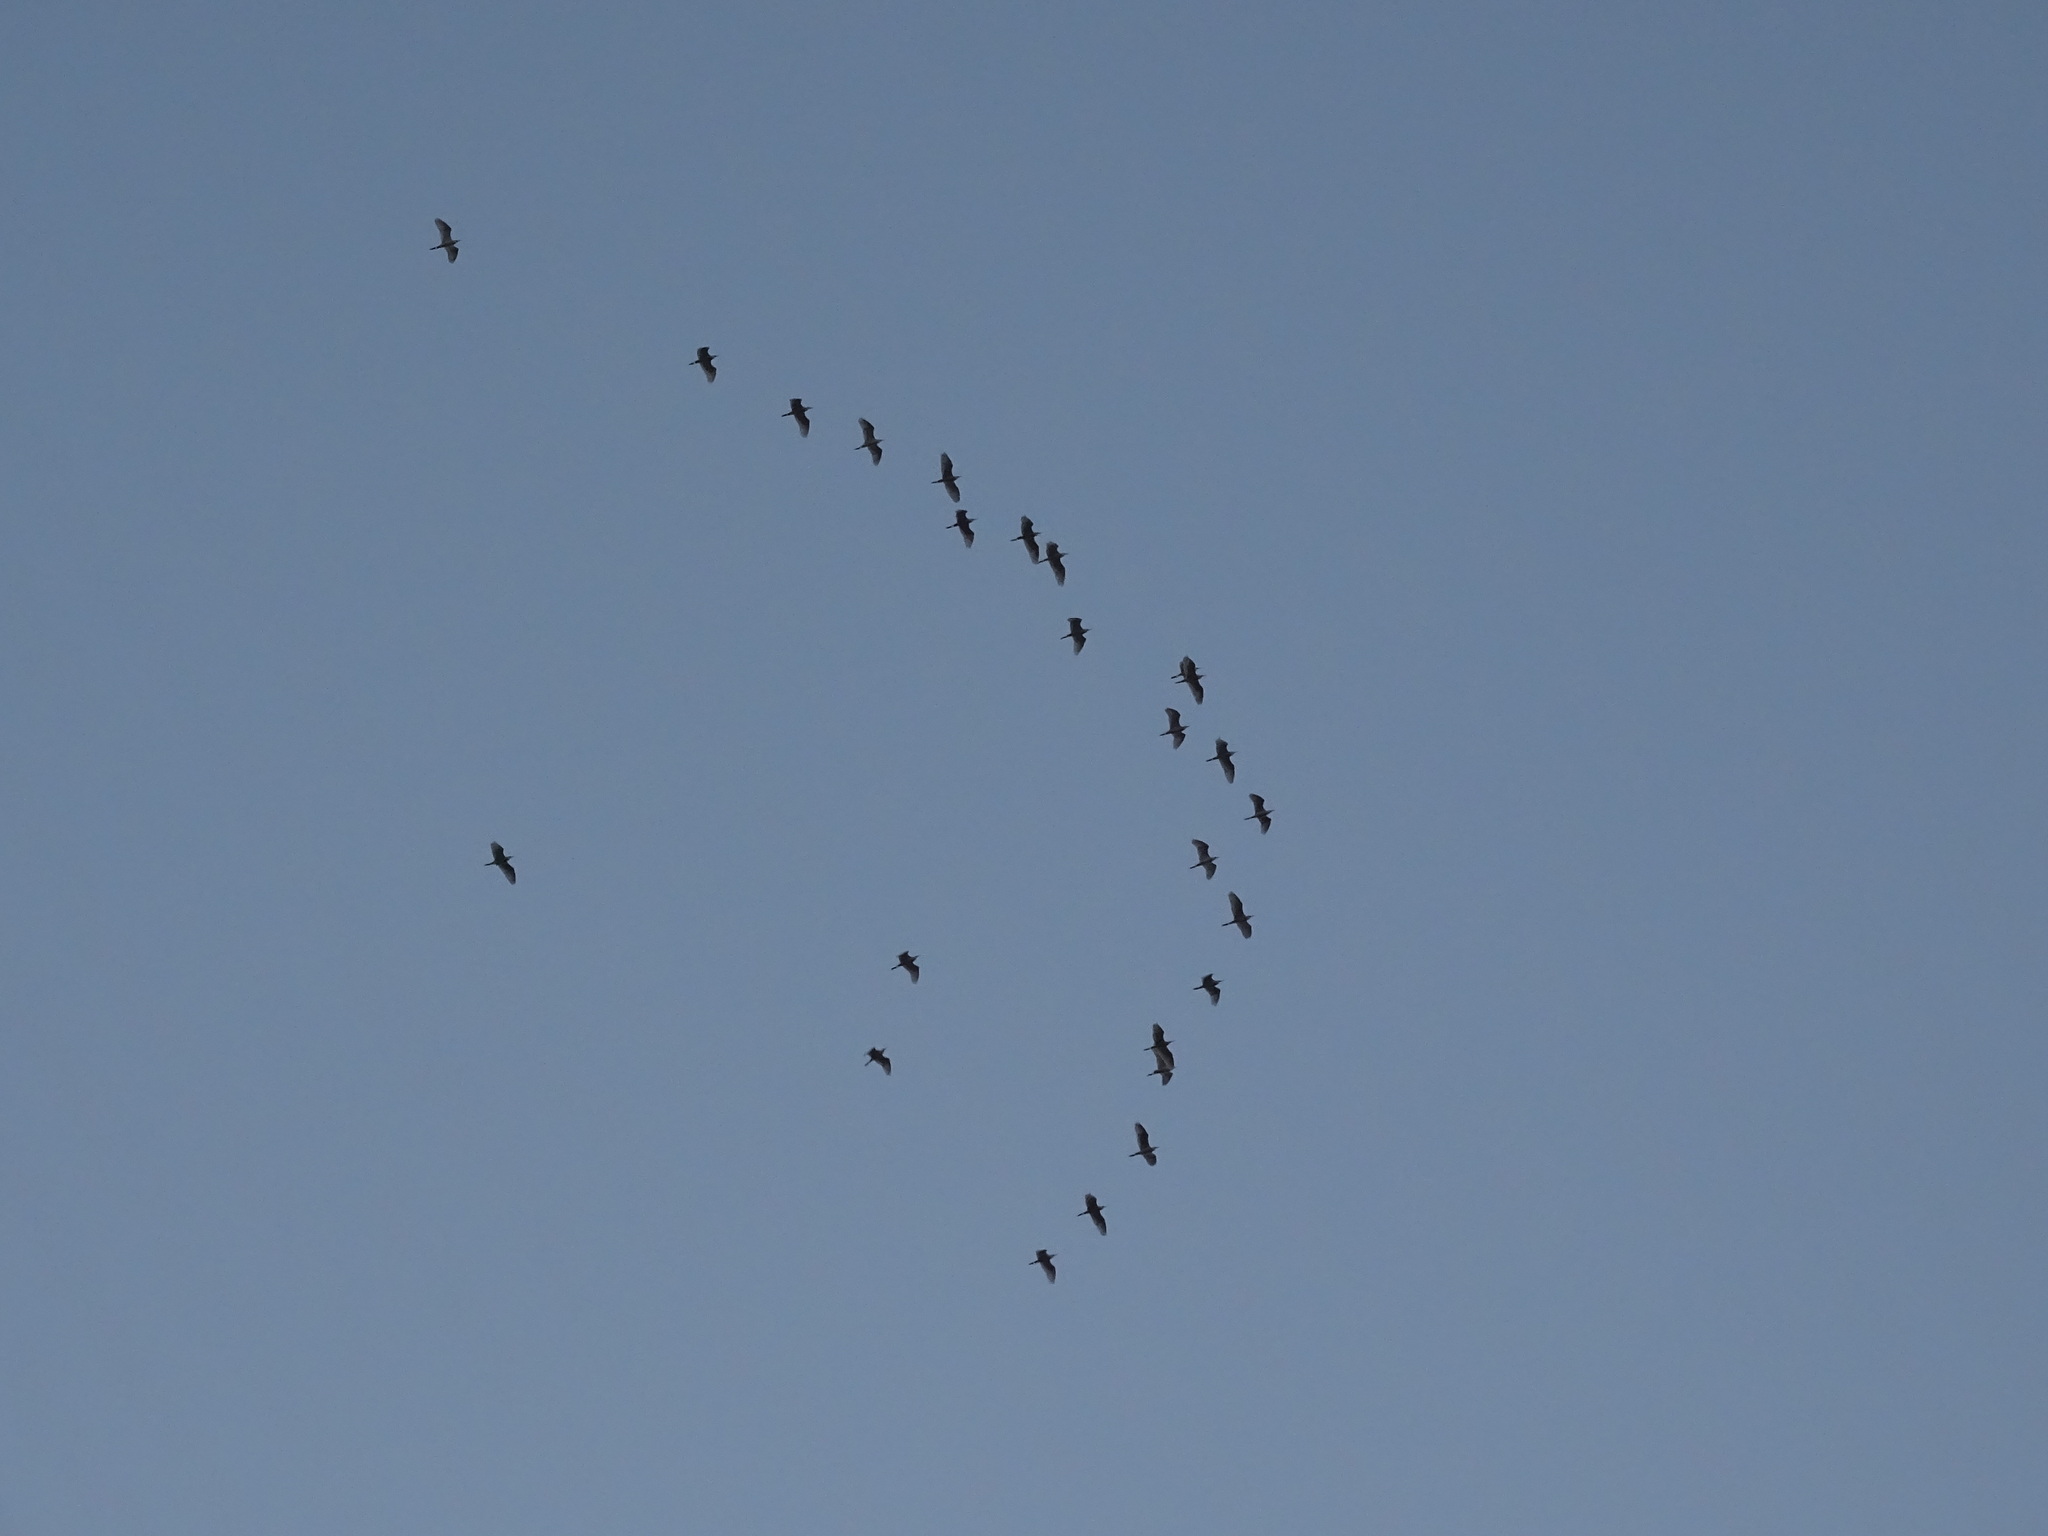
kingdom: Animalia
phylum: Chordata
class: Aves
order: Pelecaniformes
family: Ardeidae
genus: Bubulcus
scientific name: Bubulcus ibis
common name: Cattle egret
